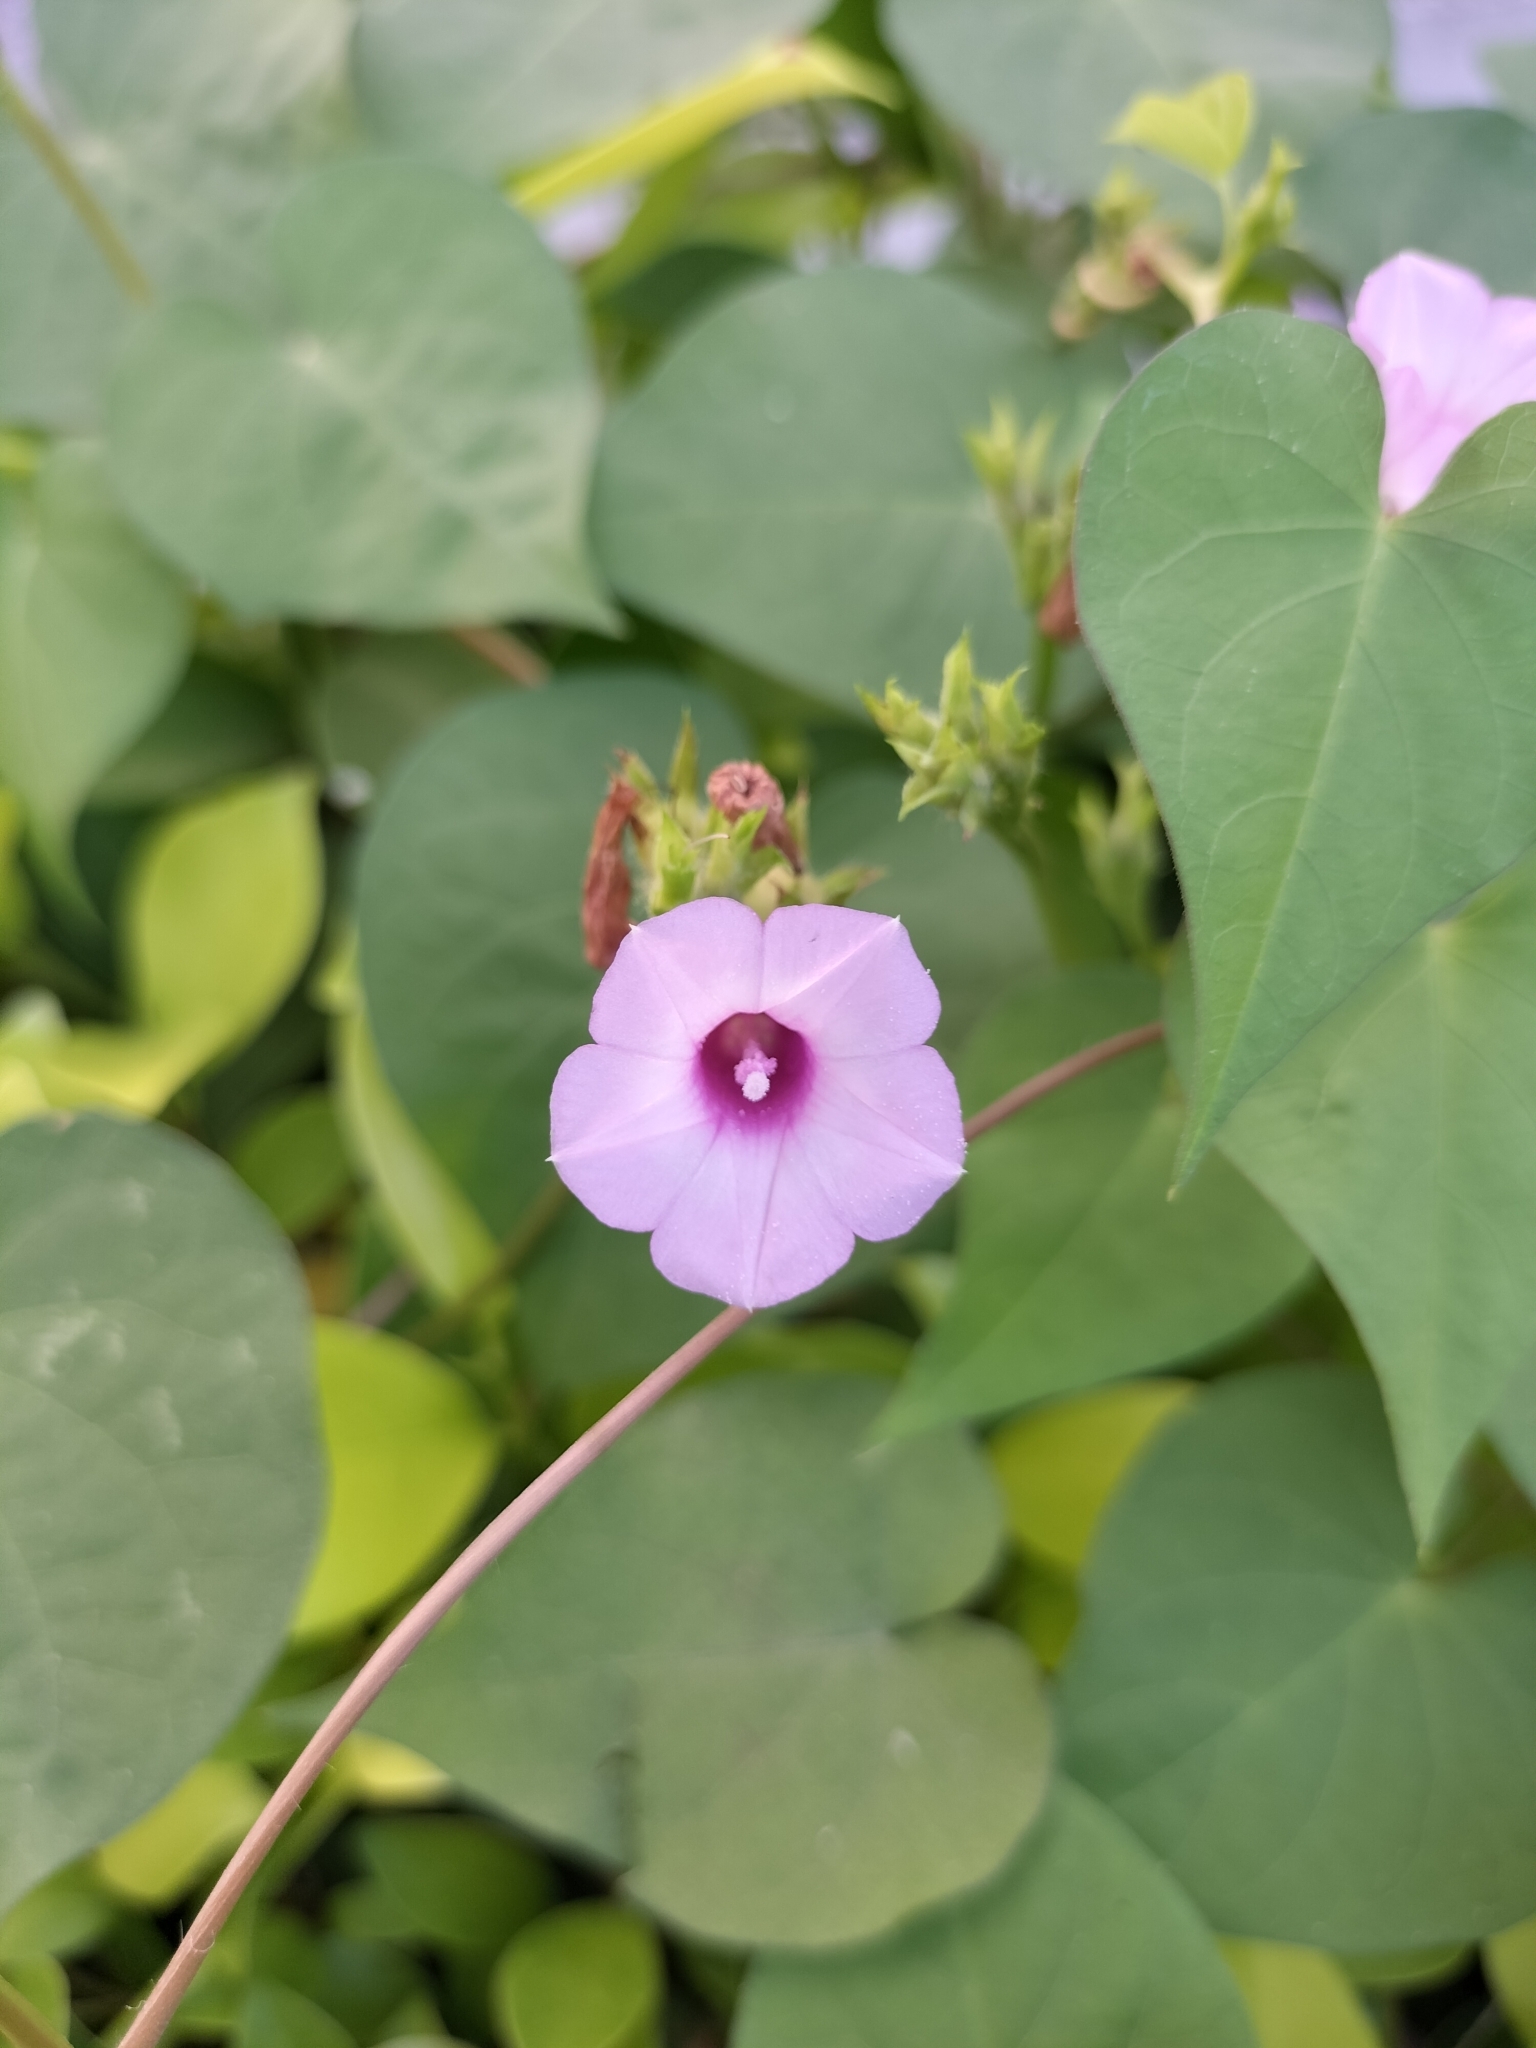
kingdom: Plantae
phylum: Tracheophyta
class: Magnoliopsida
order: Solanales
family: Convolvulaceae
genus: Ipomoea
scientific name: Ipomoea triloba
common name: Little-bell
